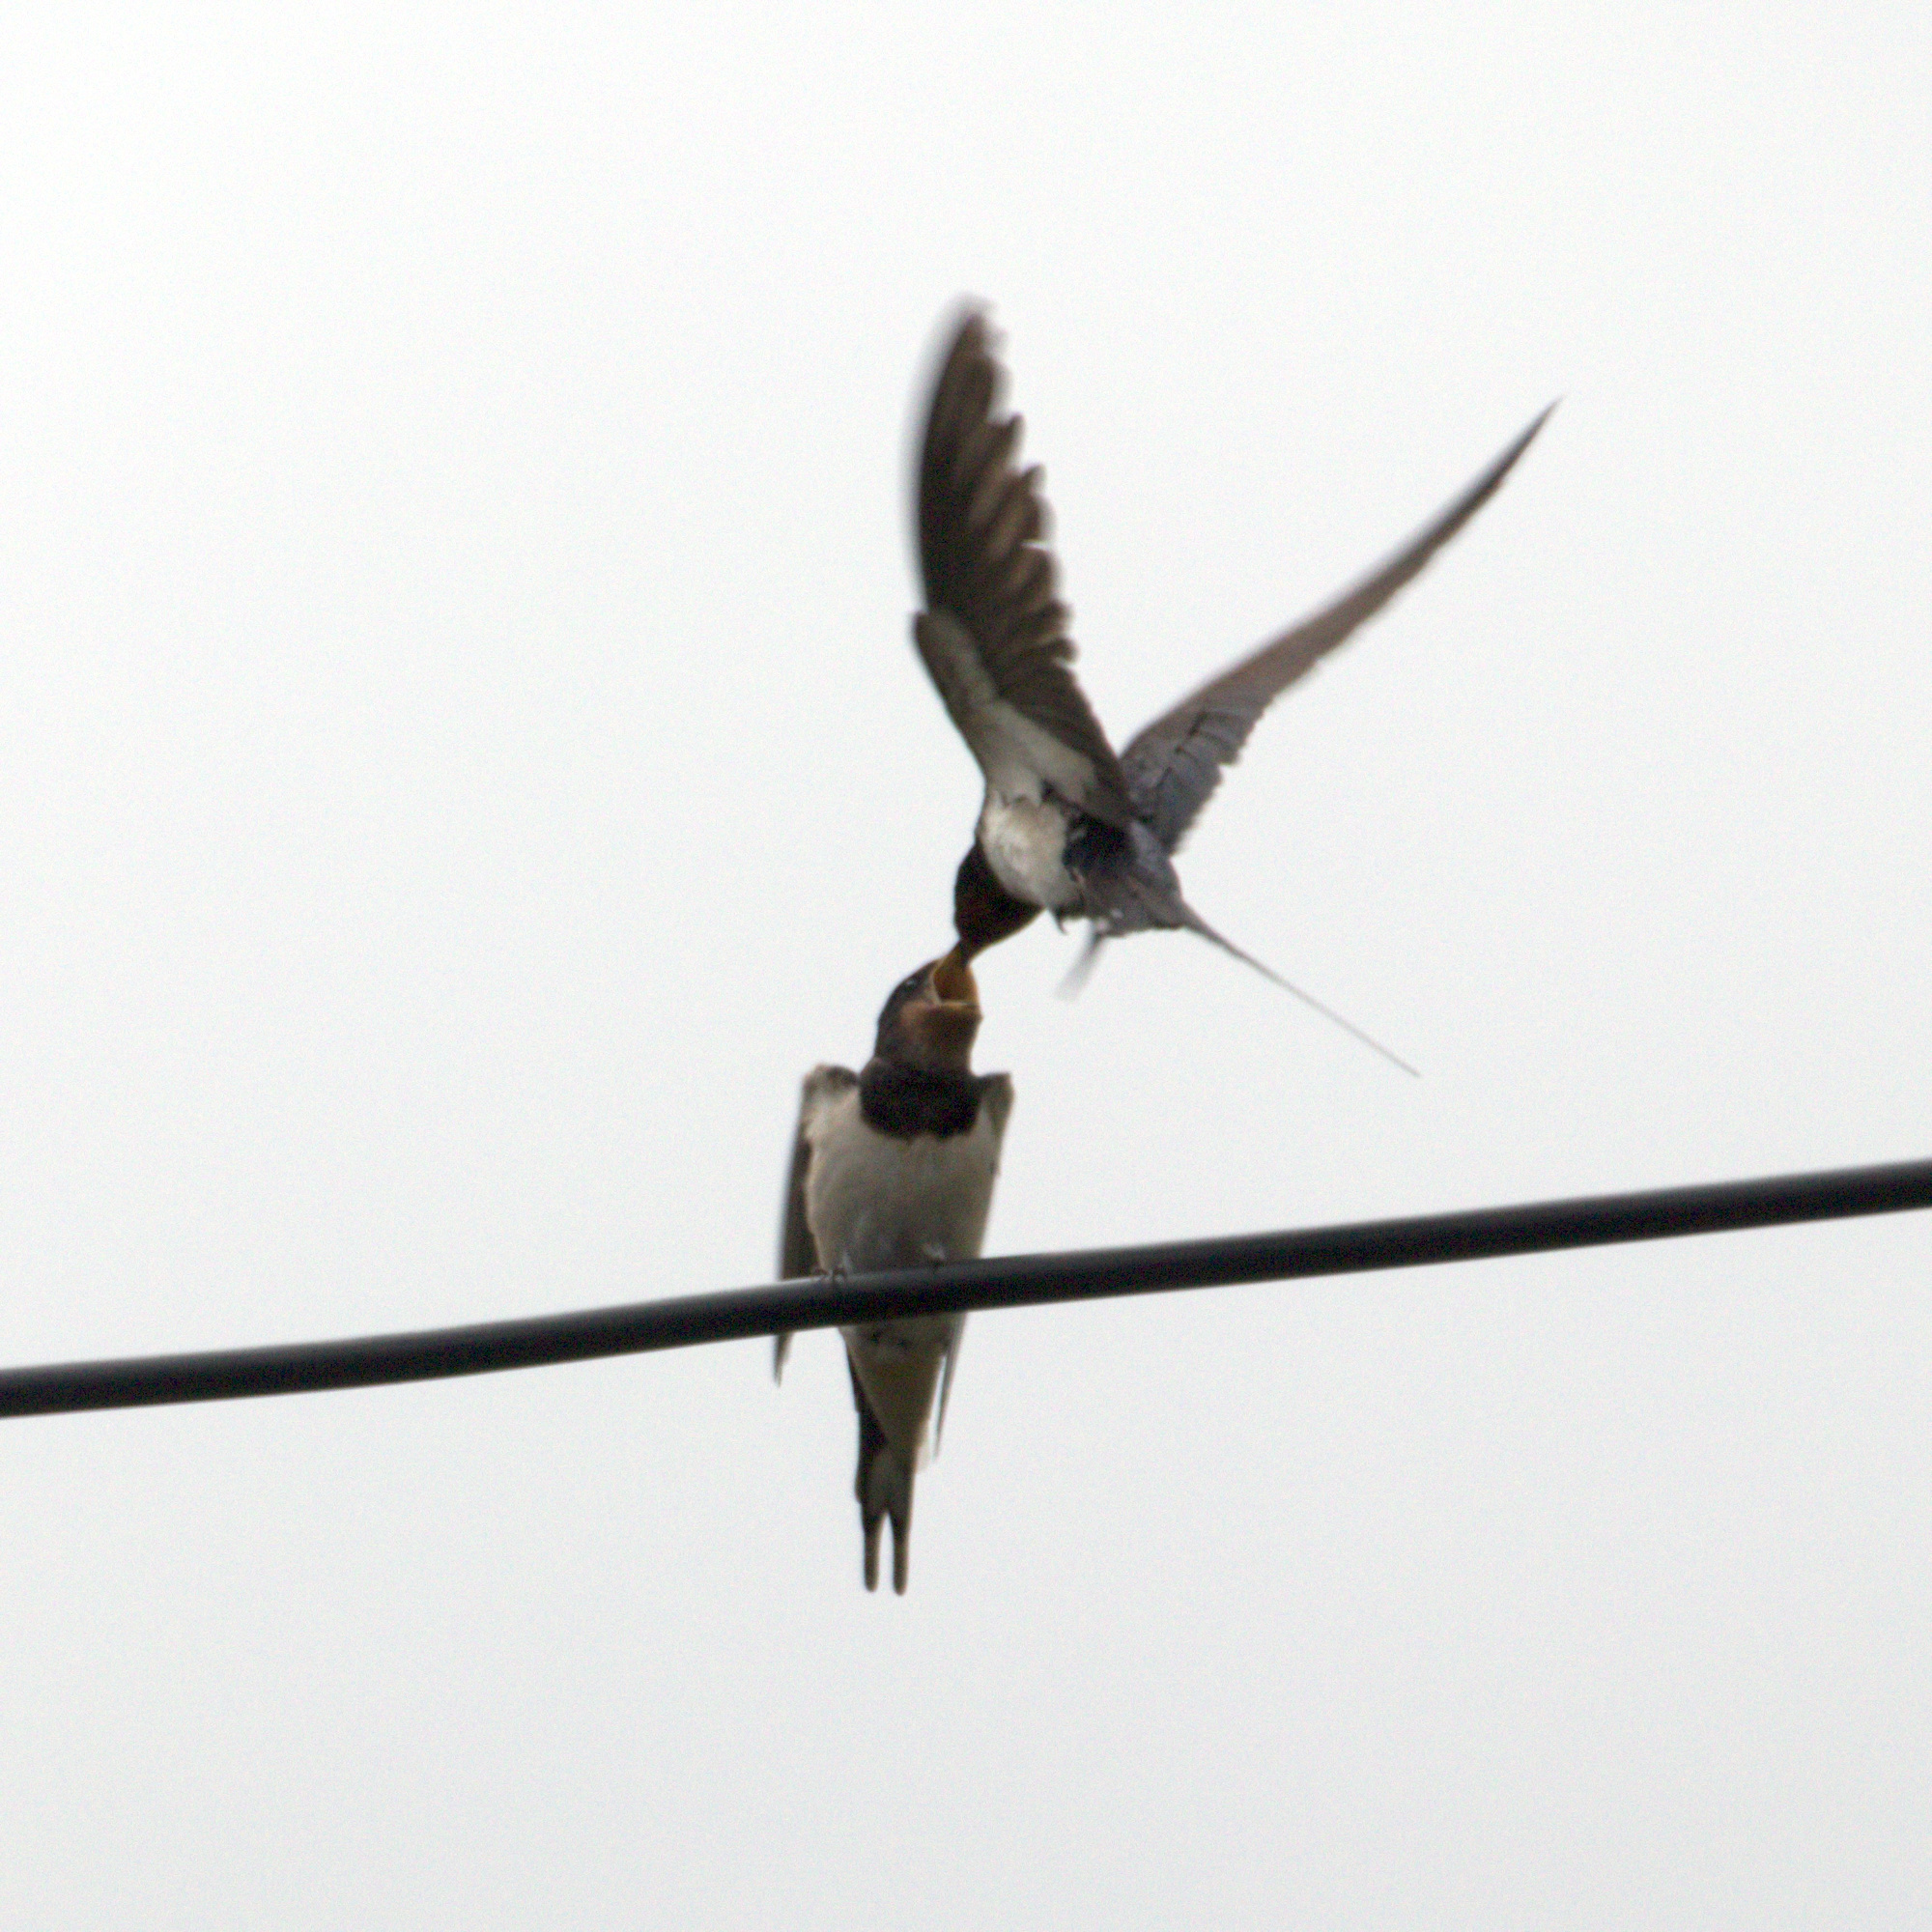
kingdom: Animalia
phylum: Chordata
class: Aves
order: Passeriformes
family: Hirundinidae
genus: Hirundo
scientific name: Hirundo rustica
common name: Barn swallow
